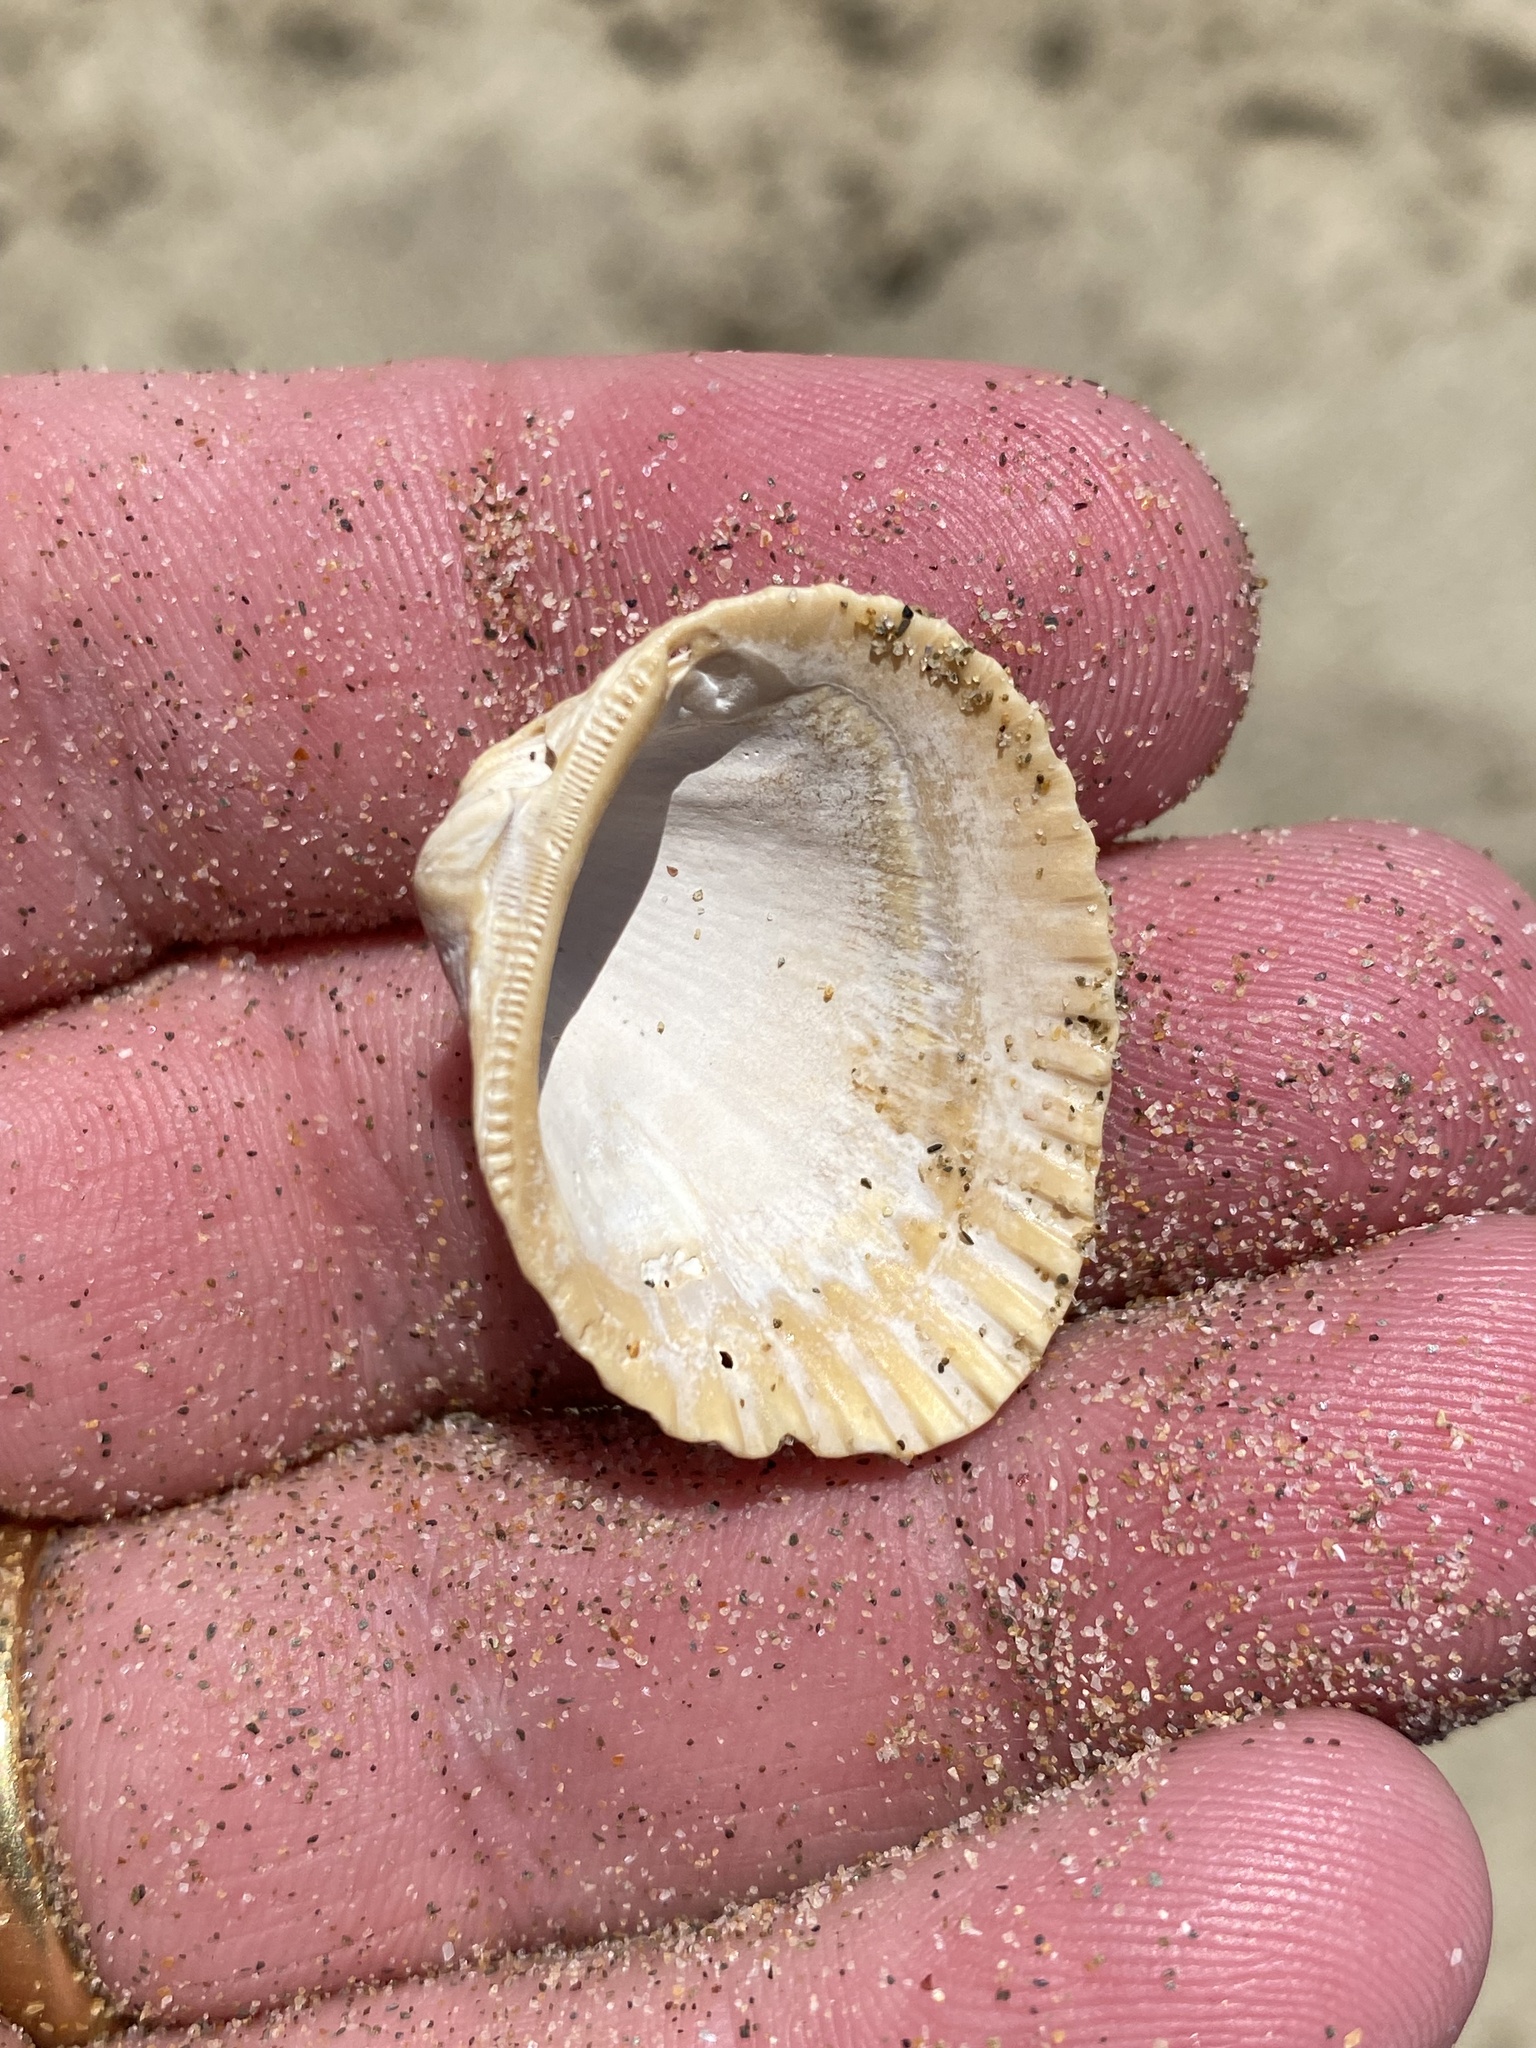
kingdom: Animalia
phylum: Mollusca
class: Bivalvia
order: Arcida
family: Arcidae
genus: Anadara
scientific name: Anadara trapezia
